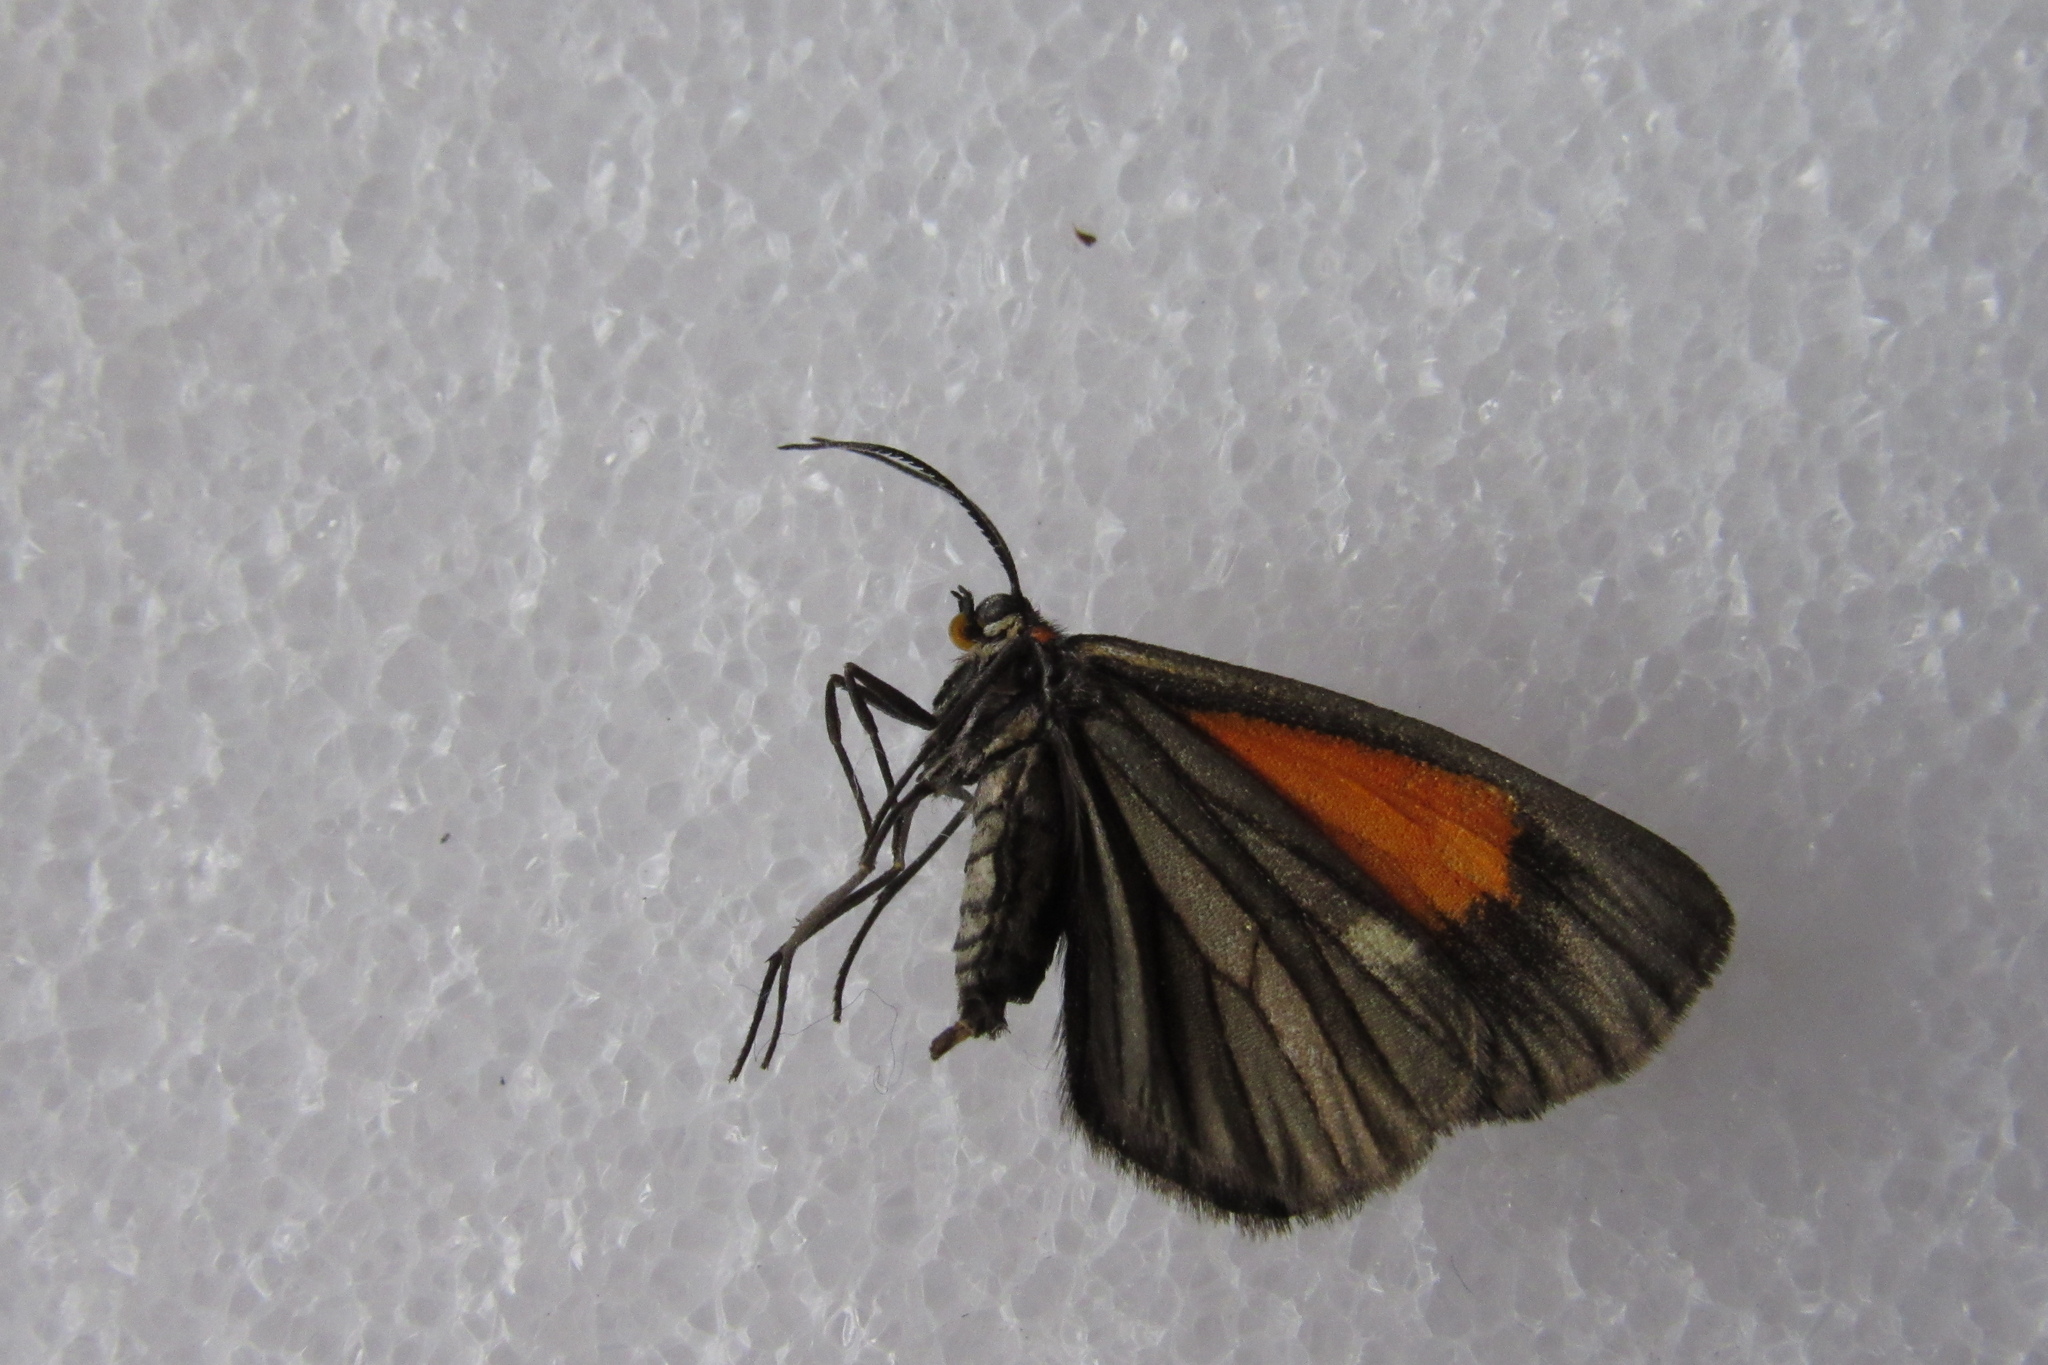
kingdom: Animalia
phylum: Arthropoda
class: Insecta
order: Lepidoptera
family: Geometridae
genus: Drymoea
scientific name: Drymoea
